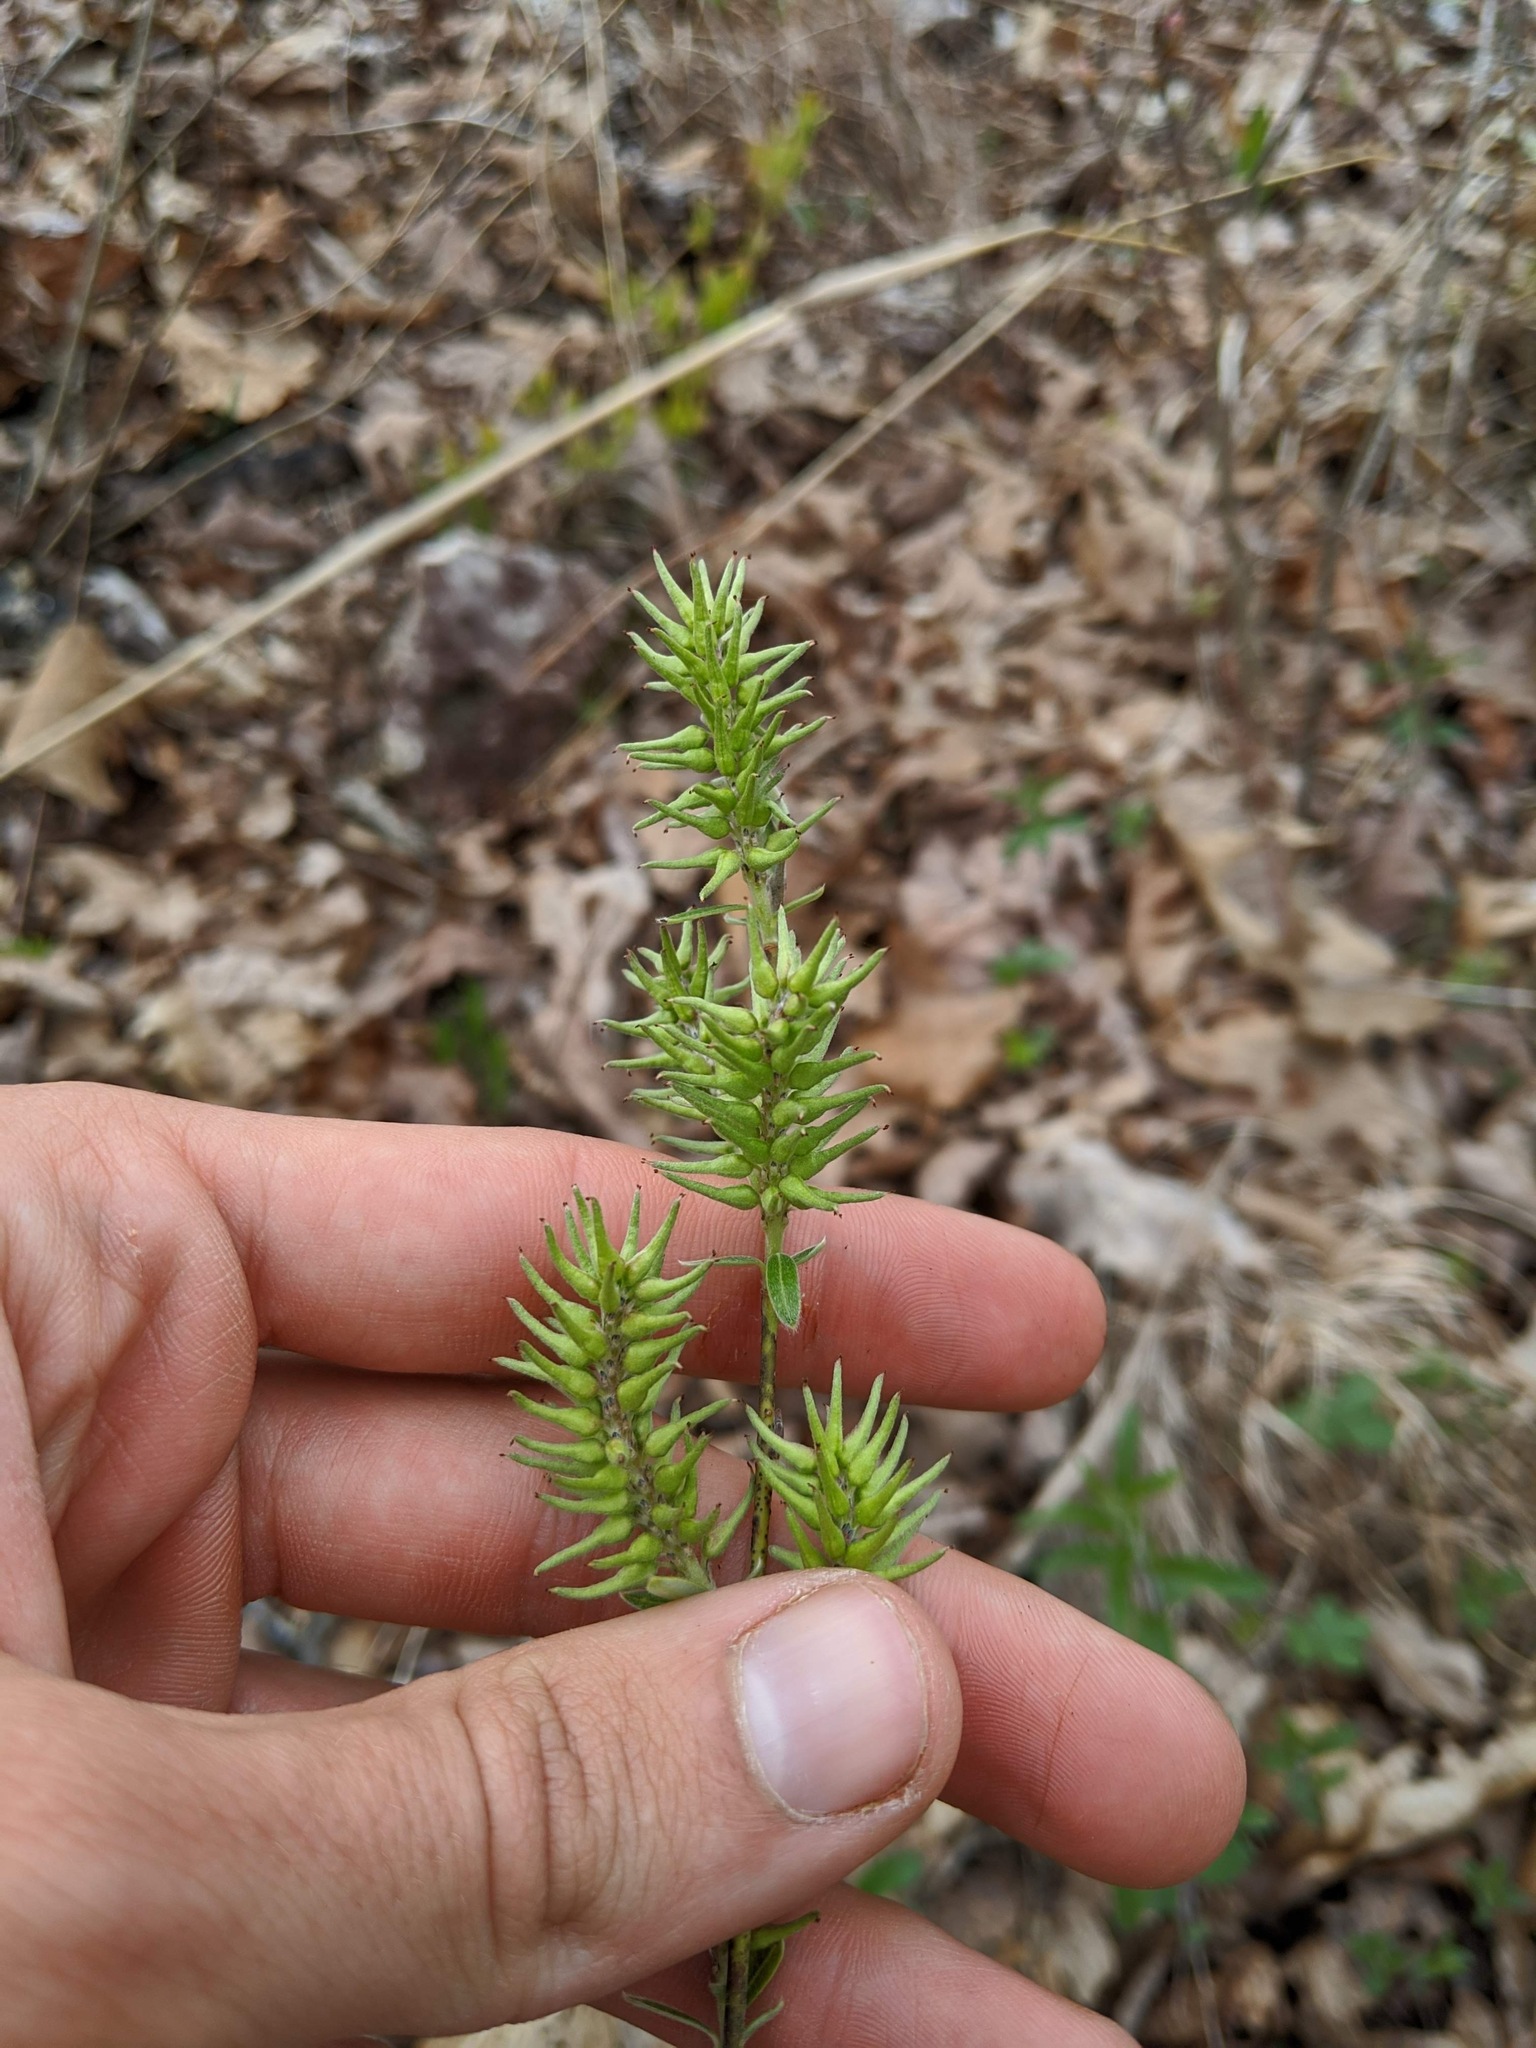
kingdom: Plantae
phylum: Tracheophyta
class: Magnoliopsida
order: Malpighiales
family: Salicaceae
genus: Salix
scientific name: Salix humilis
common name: Prairie willow
